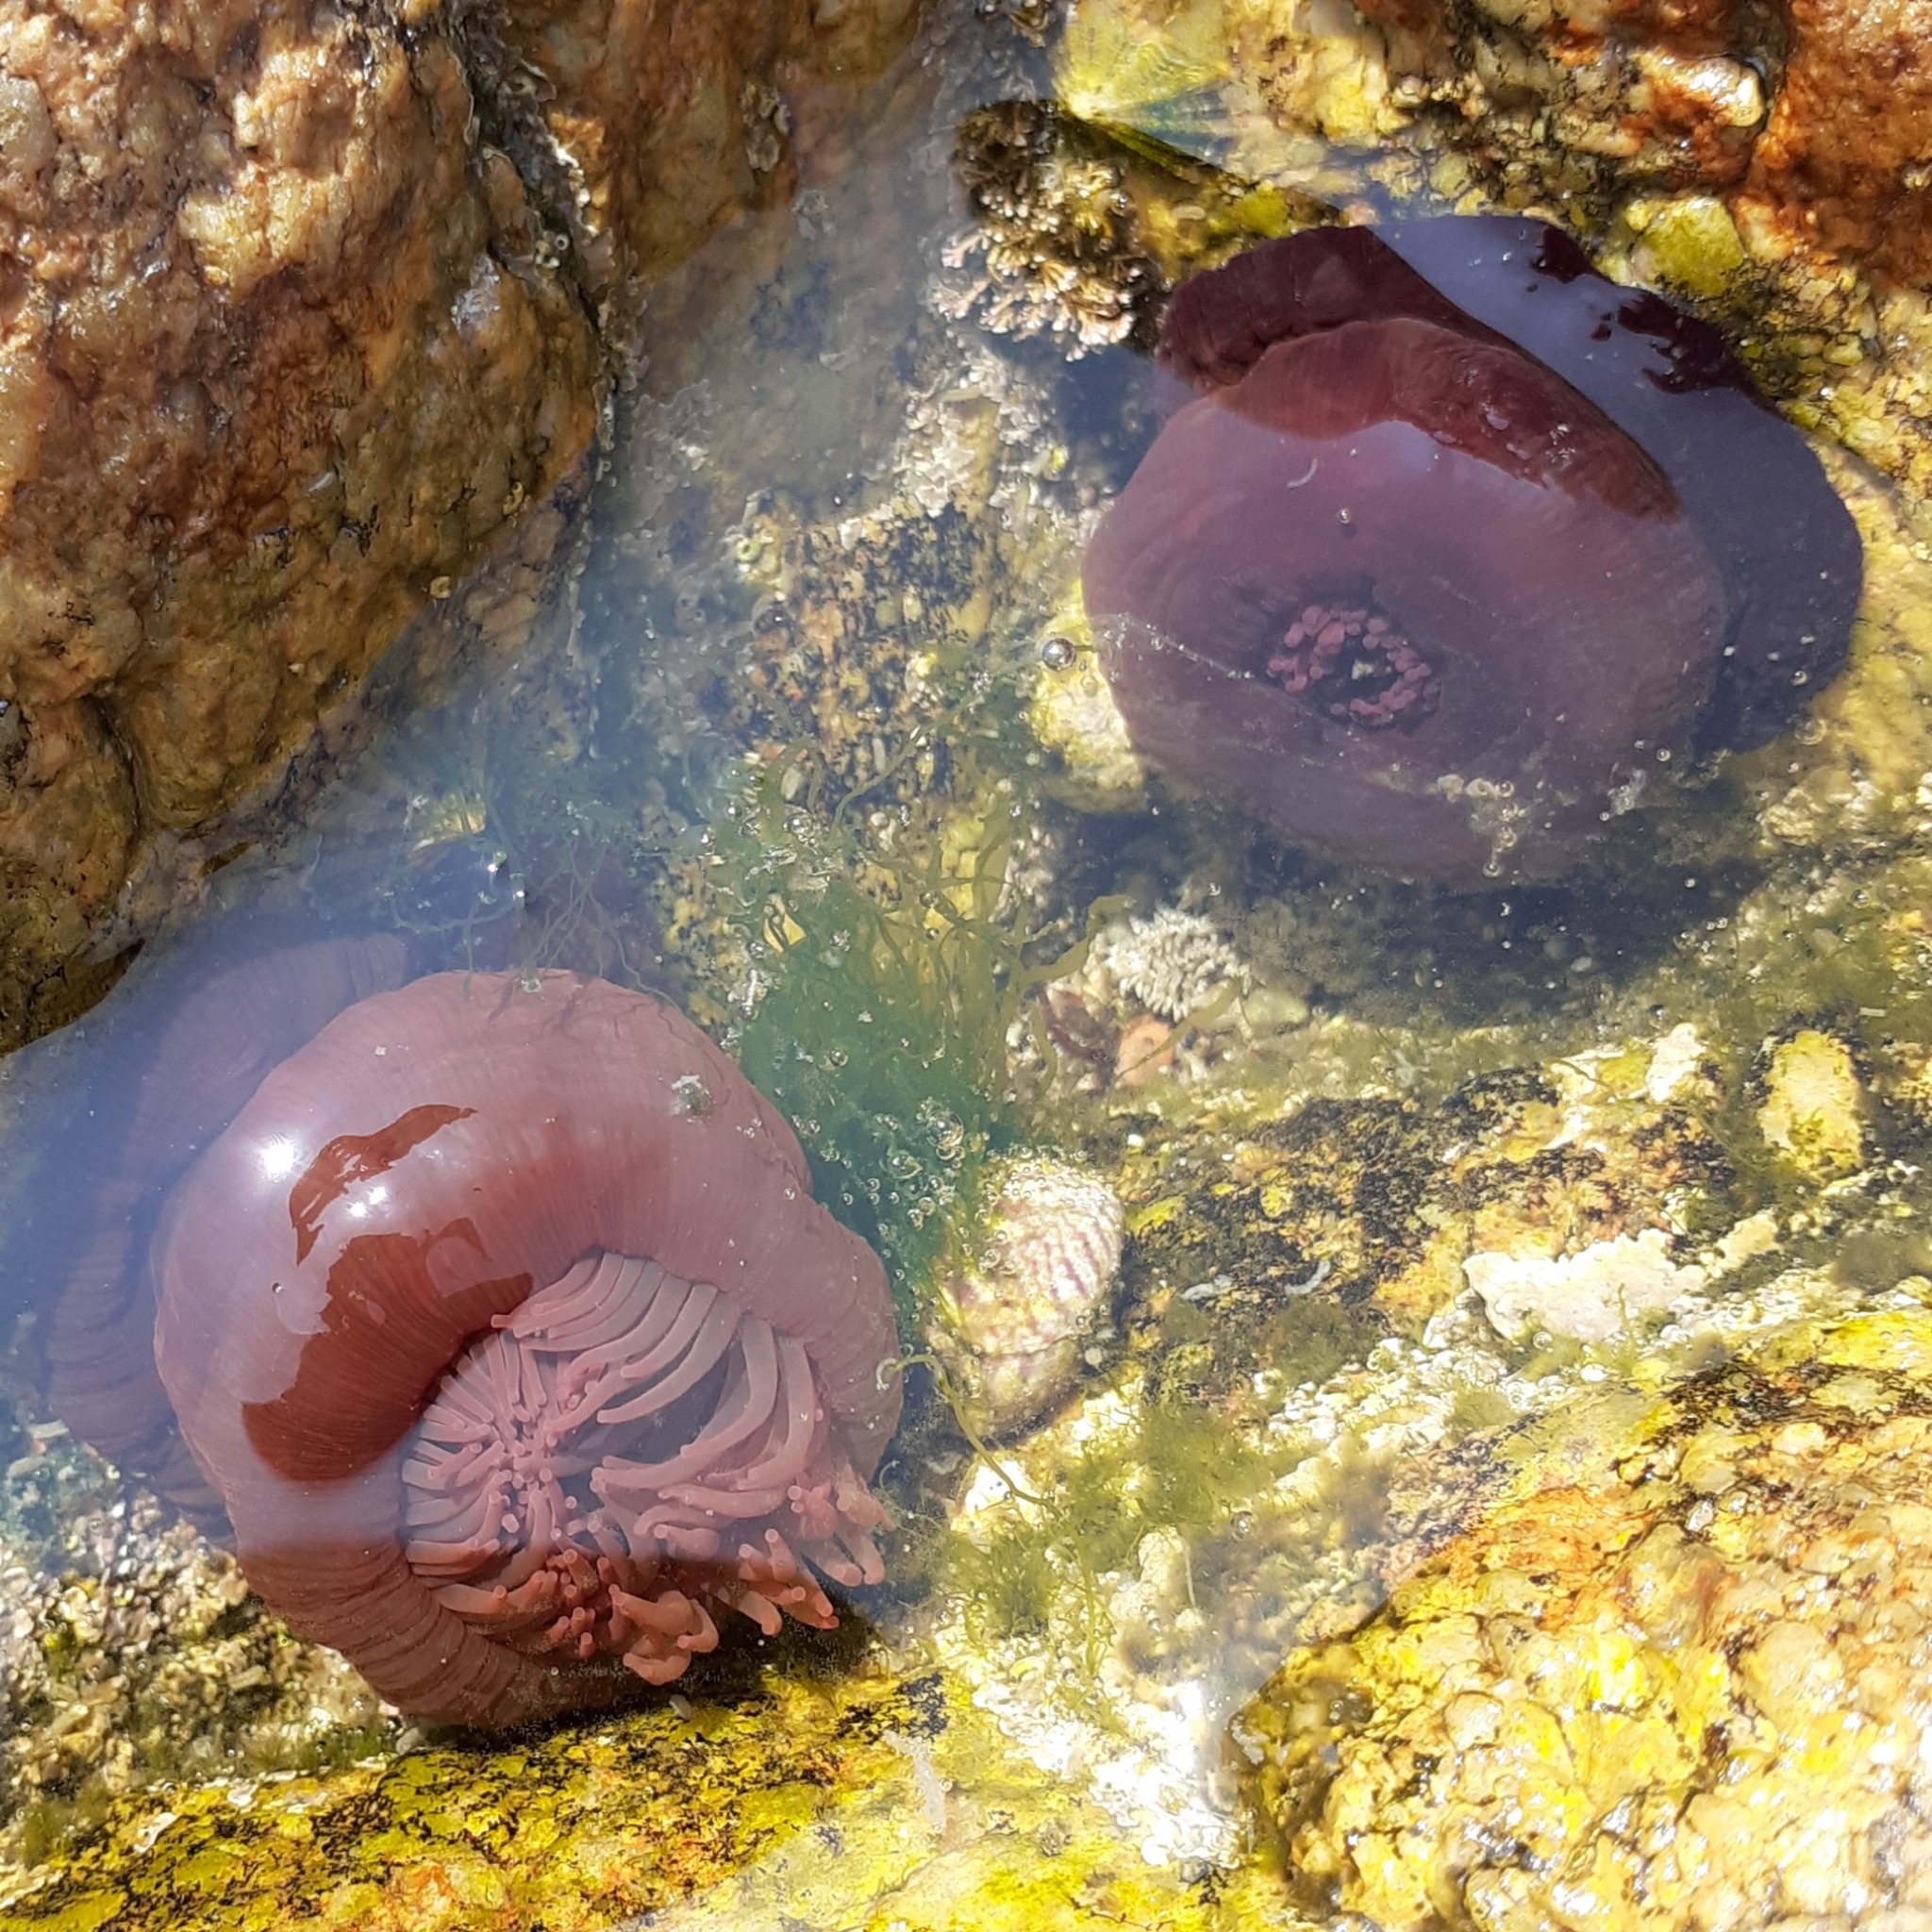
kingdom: Animalia
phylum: Cnidaria
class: Anthozoa
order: Actiniaria
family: Actiniidae
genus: Actinia
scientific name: Actinia equina
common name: Beadlet anemone
